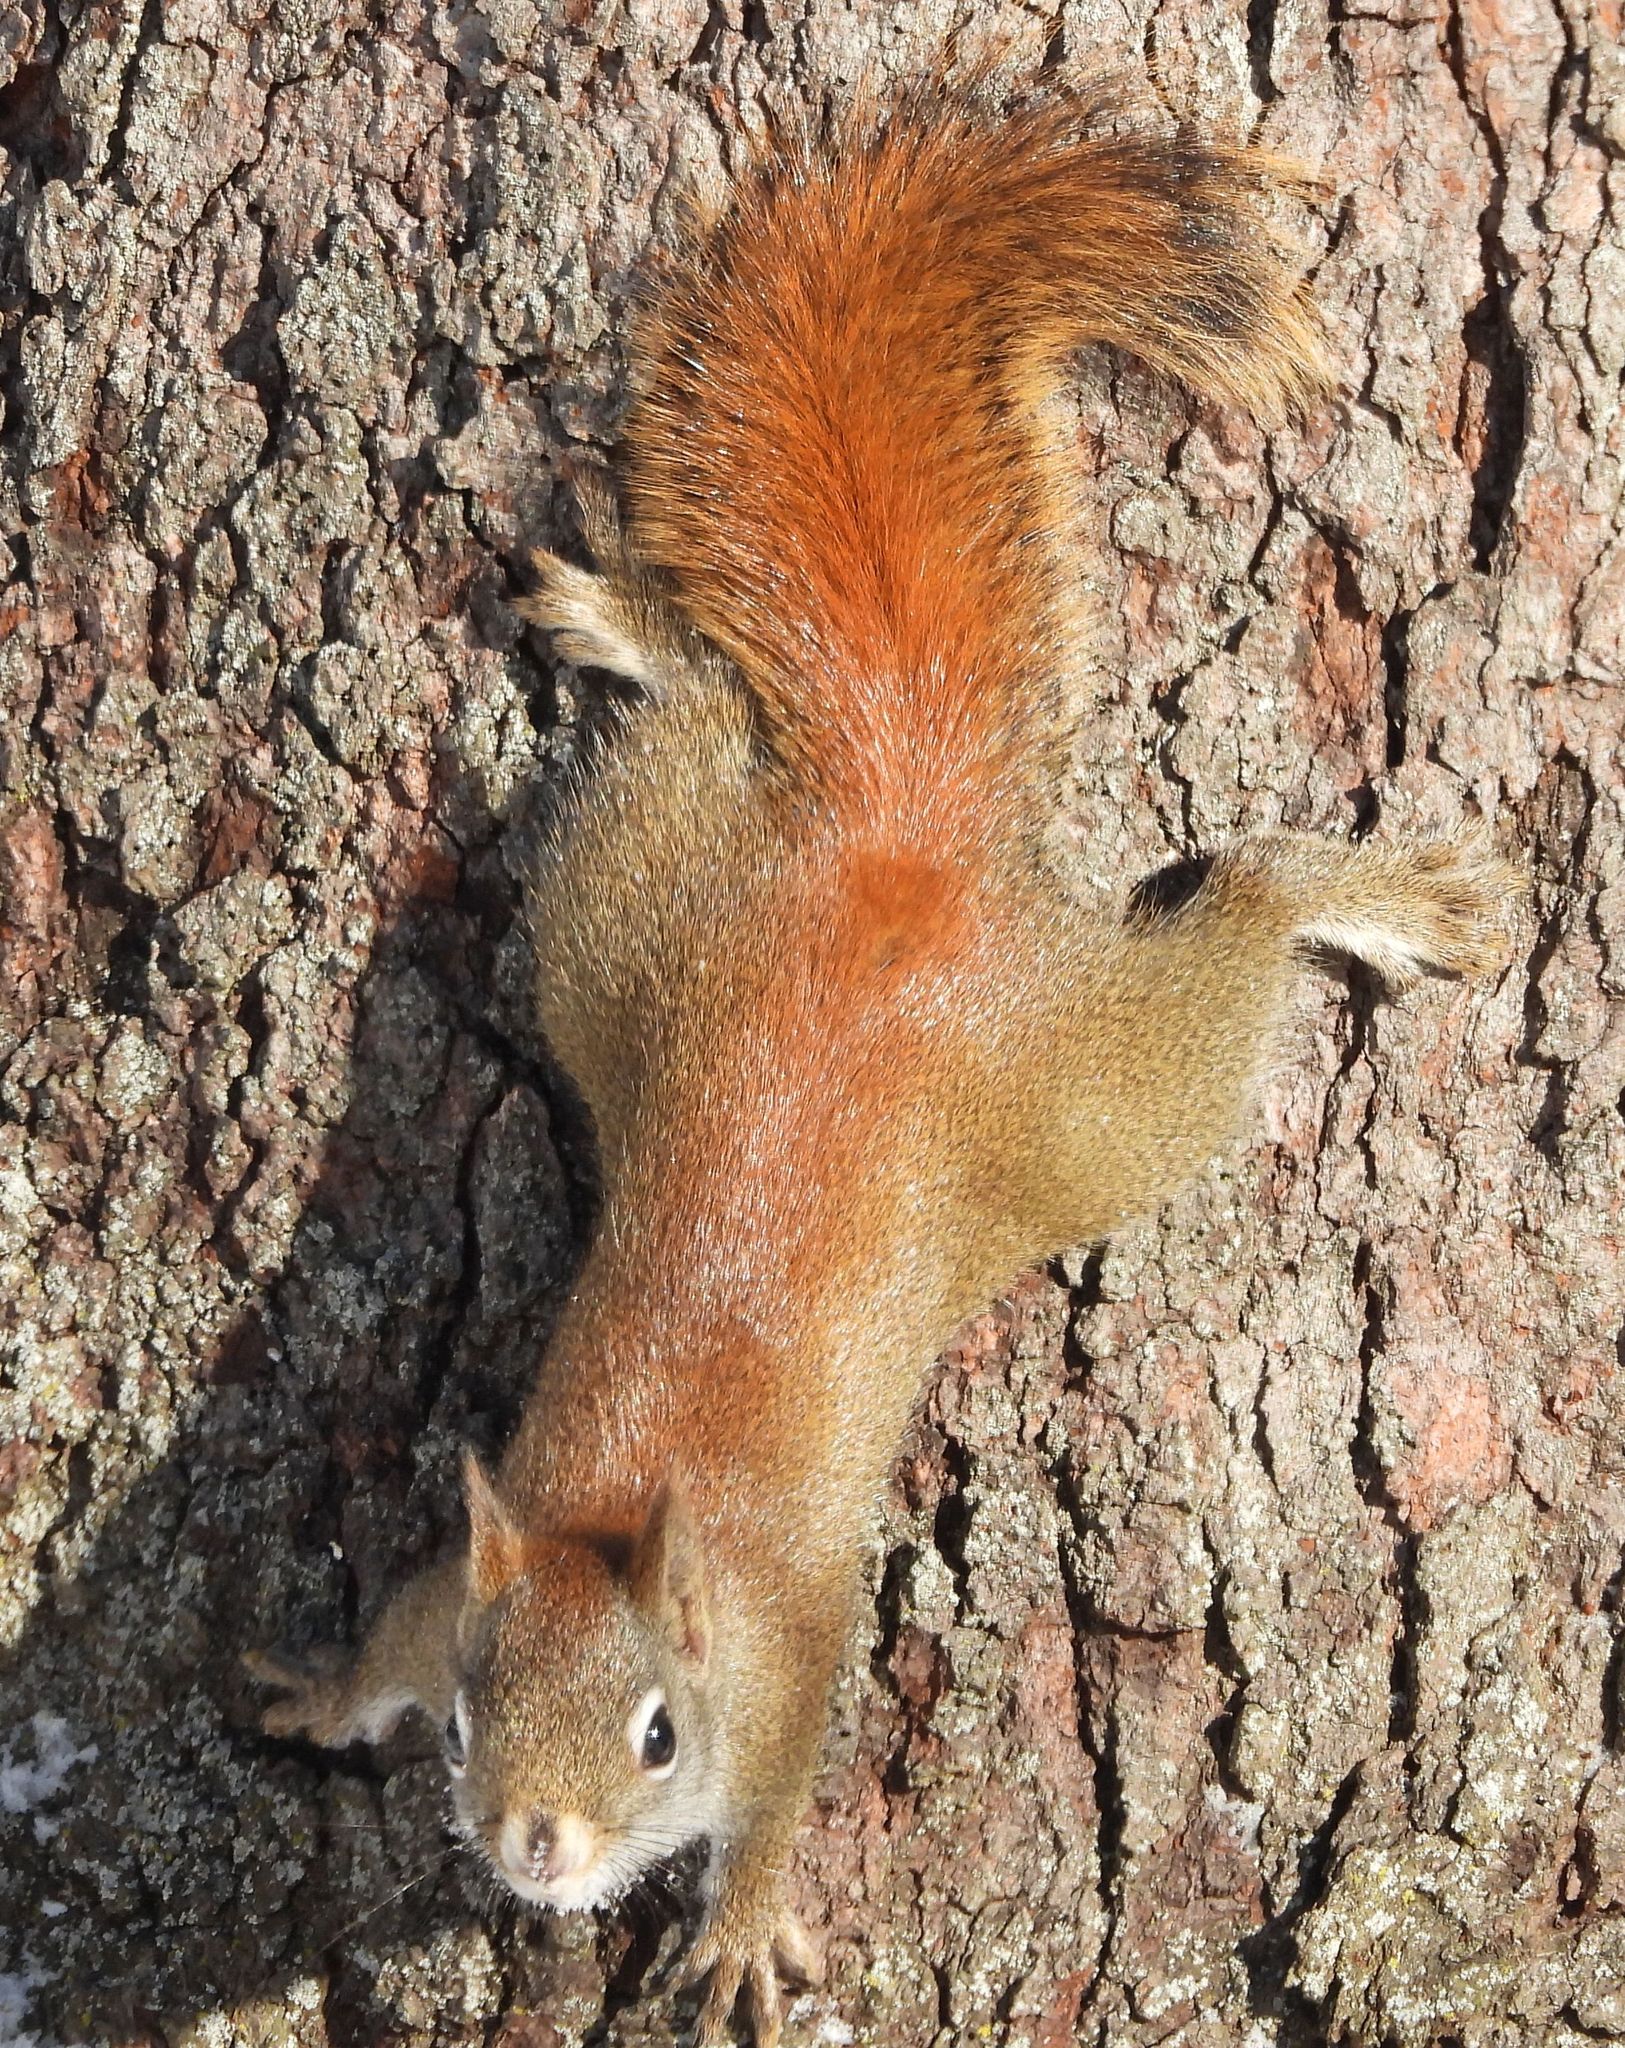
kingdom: Animalia
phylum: Chordata
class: Mammalia
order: Rodentia
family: Sciuridae
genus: Tamiasciurus
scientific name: Tamiasciurus hudsonicus
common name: Red squirrel
